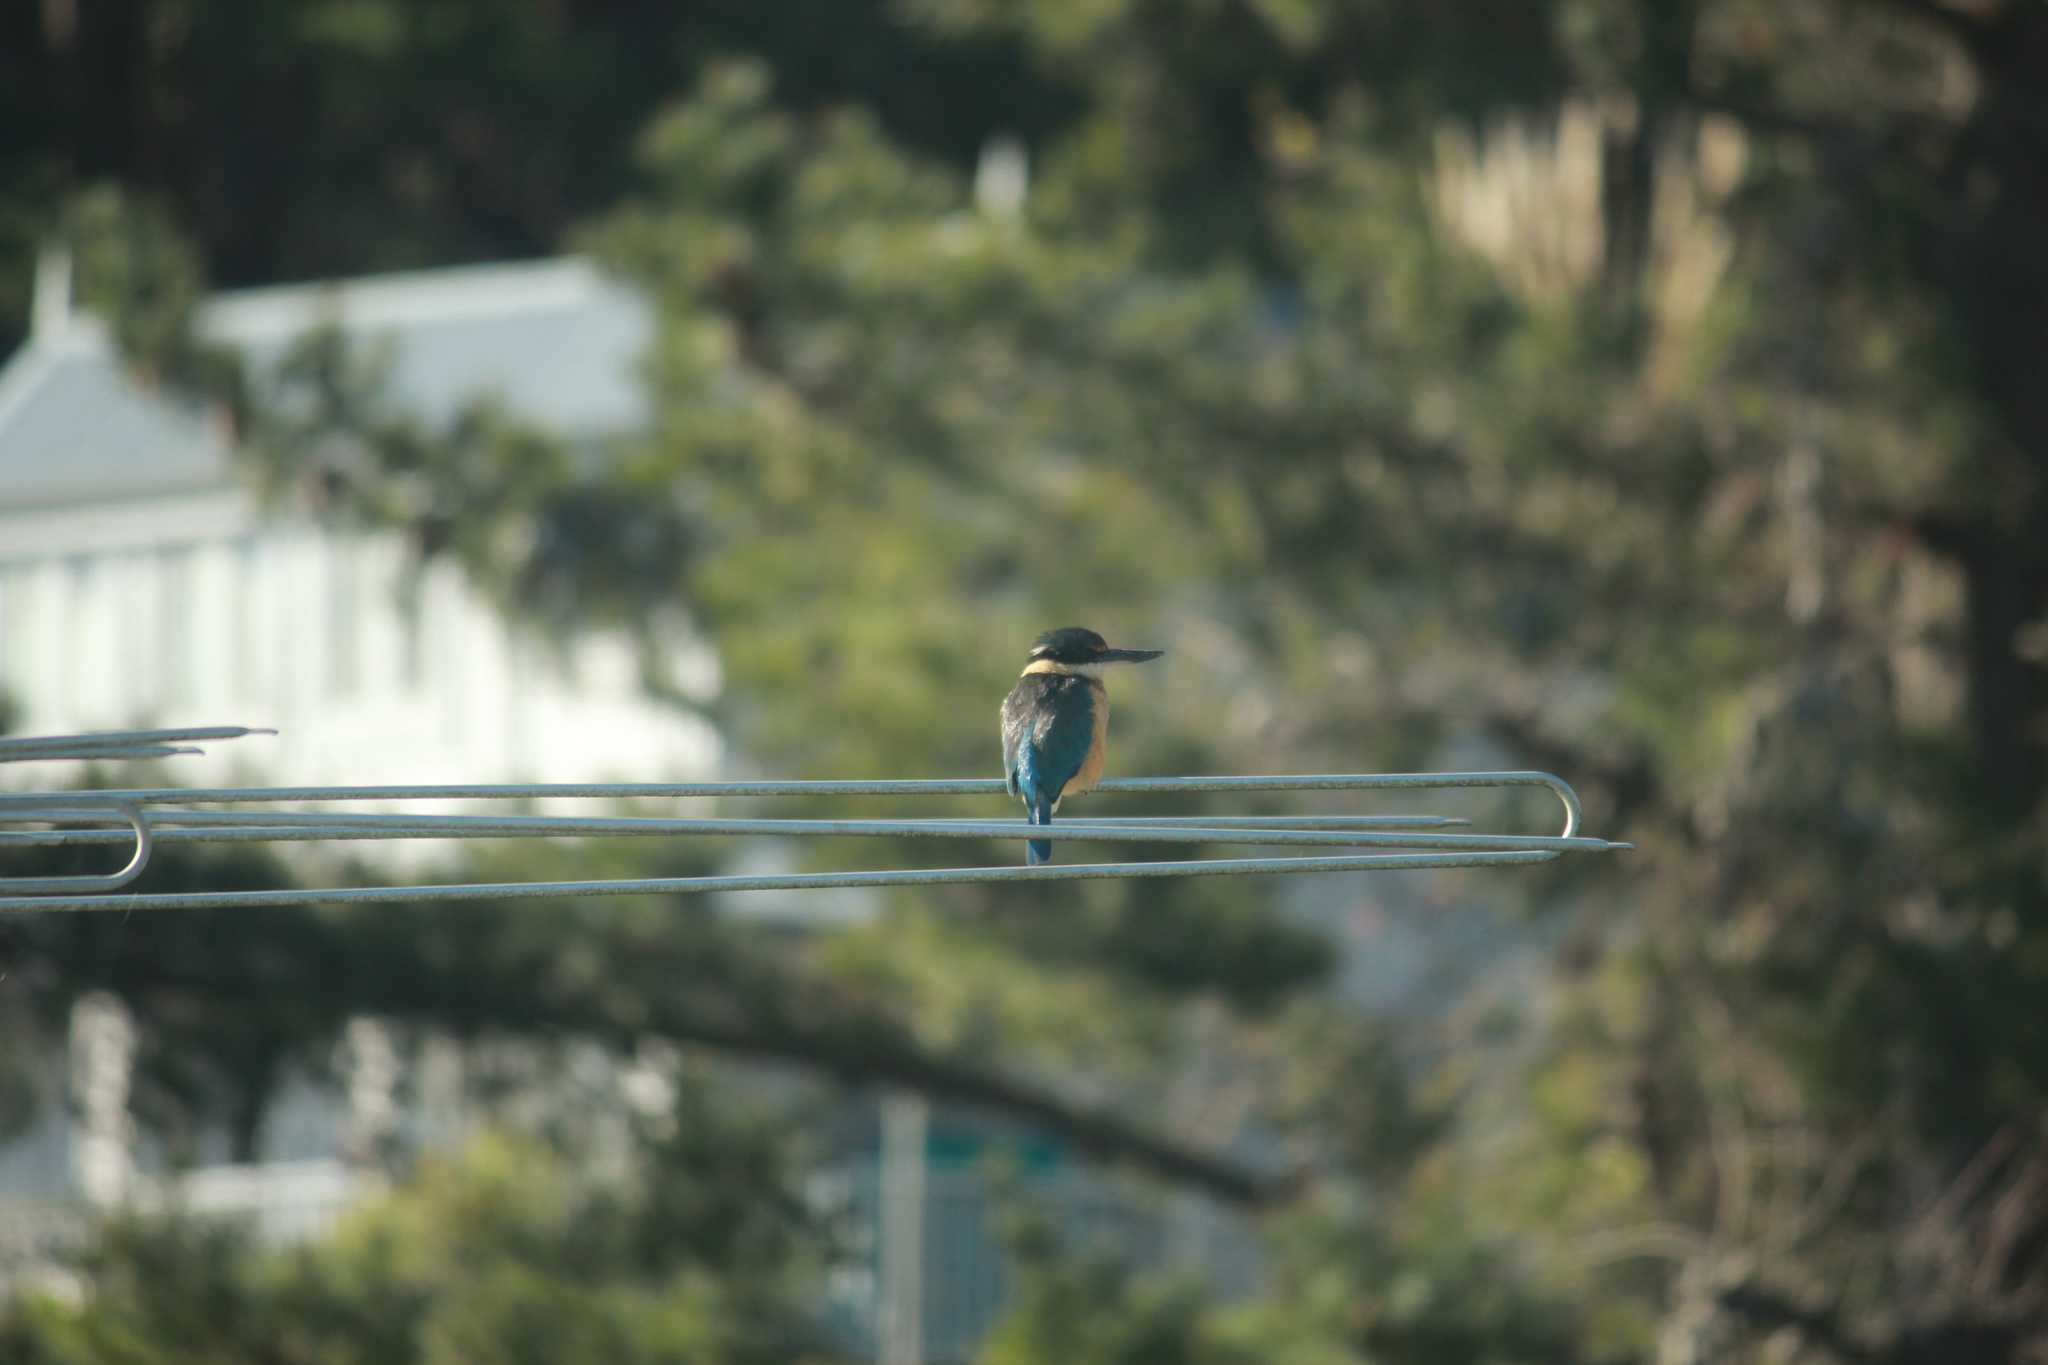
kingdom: Animalia
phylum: Chordata
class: Aves
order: Coraciiformes
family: Alcedinidae
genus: Todiramphus
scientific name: Todiramphus sanctus
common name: Sacred kingfisher
